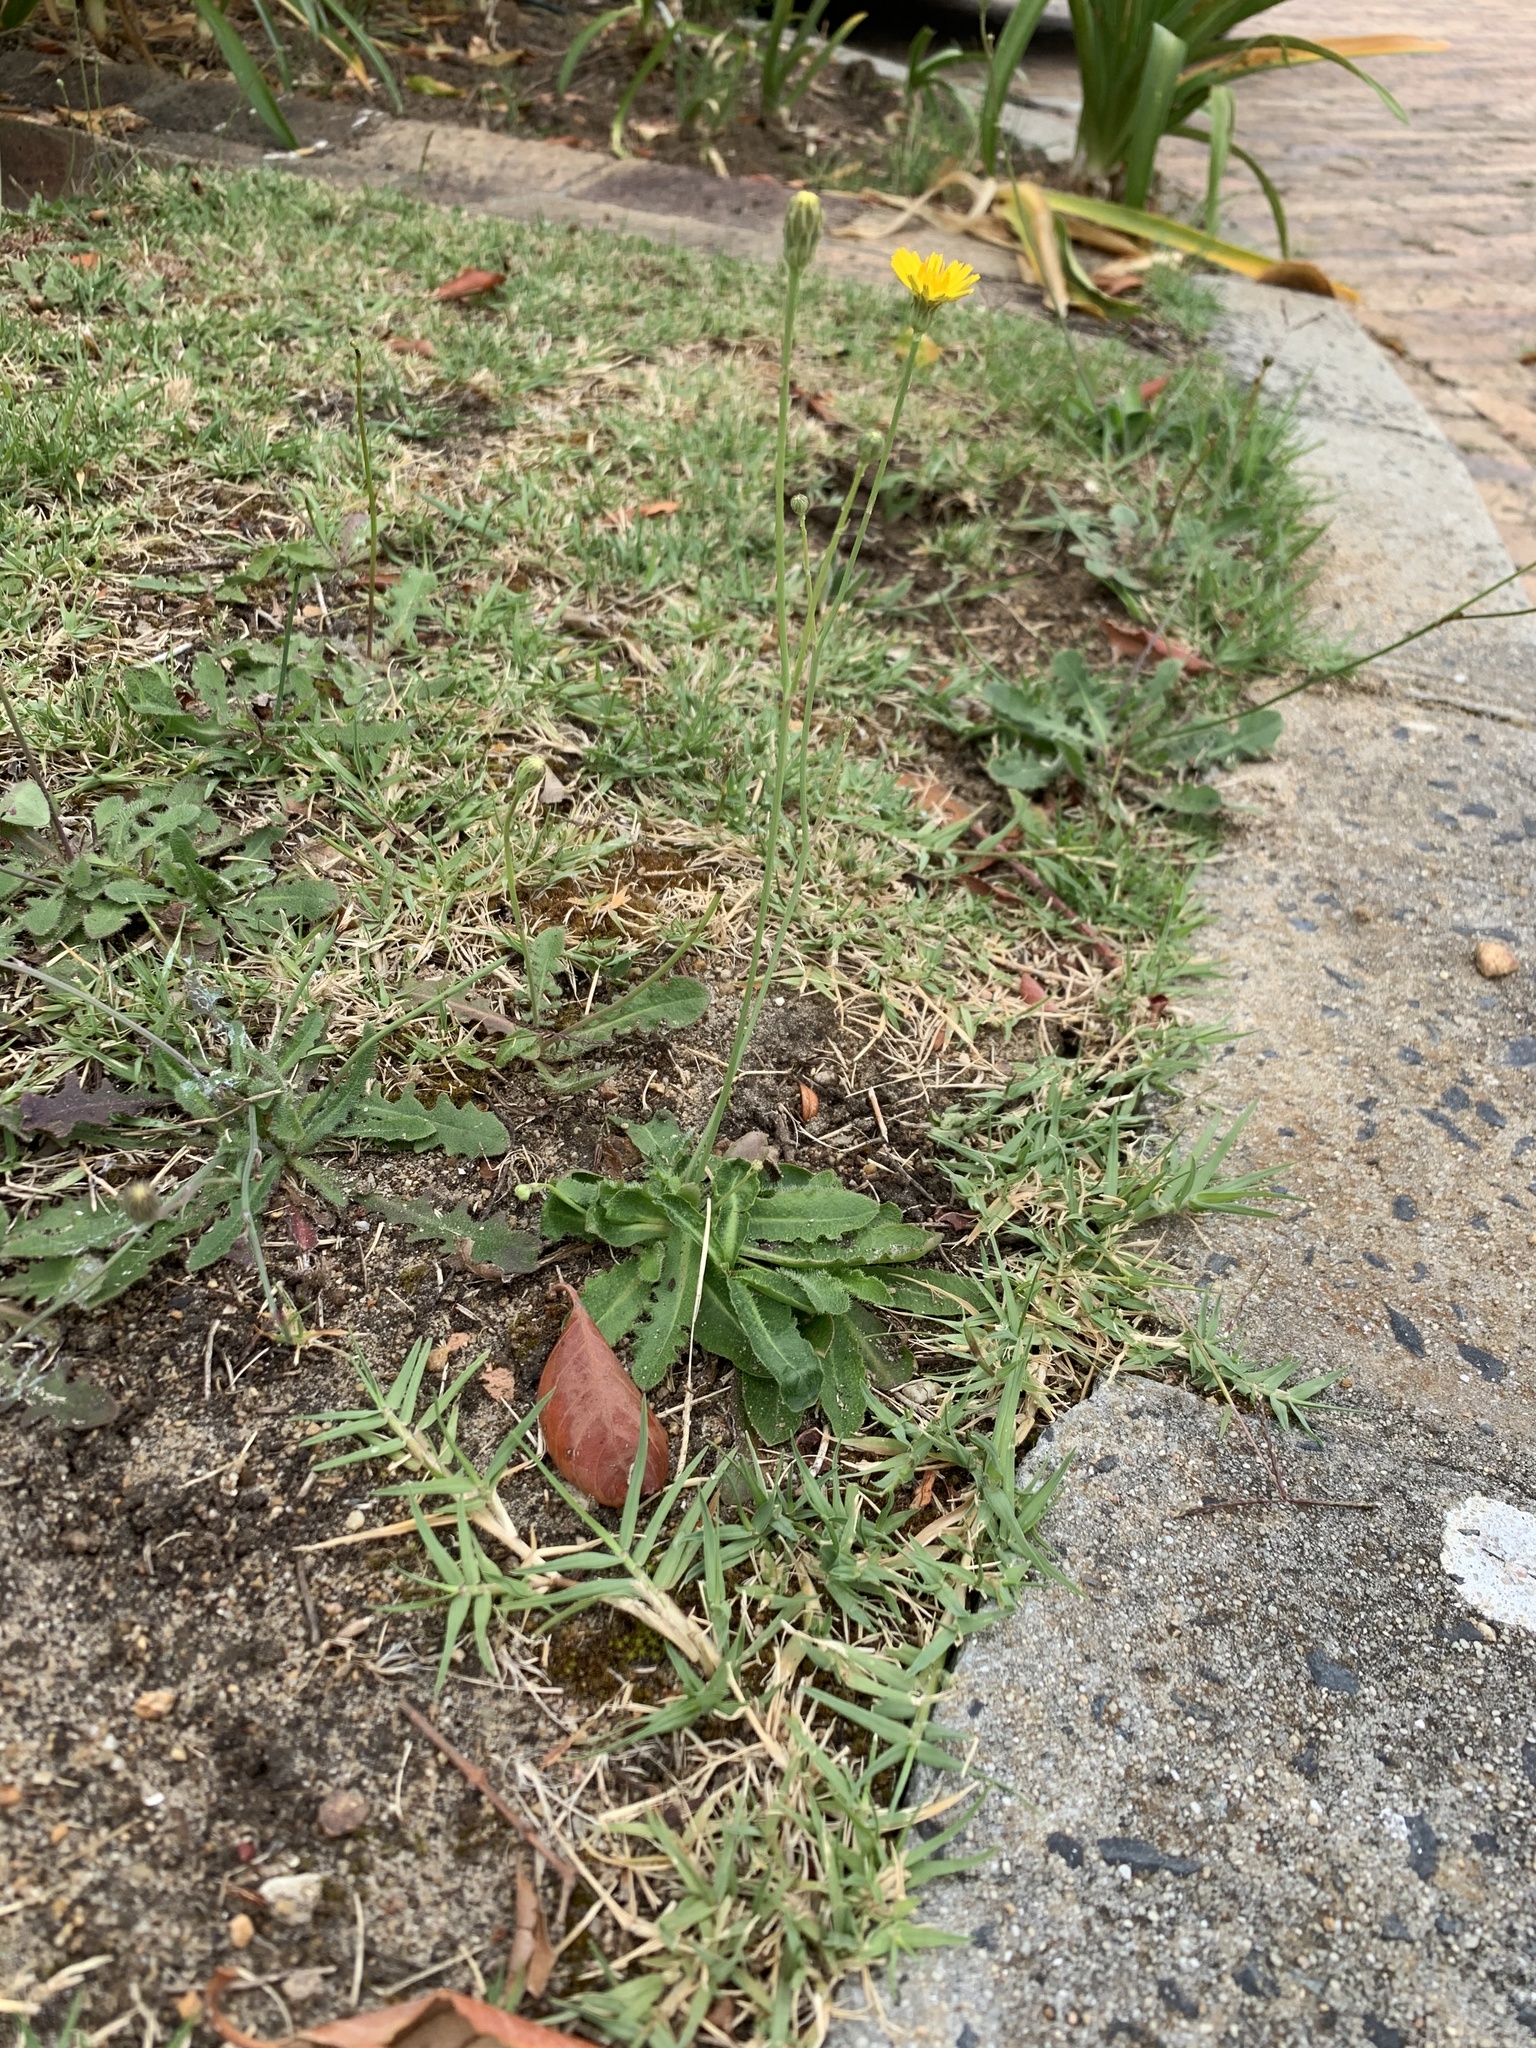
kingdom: Plantae
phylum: Tracheophyta
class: Magnoliopsida
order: Asterales
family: Asteraceae
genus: Hypochaeris
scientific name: Hypochaeris radicata
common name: Flatweed
